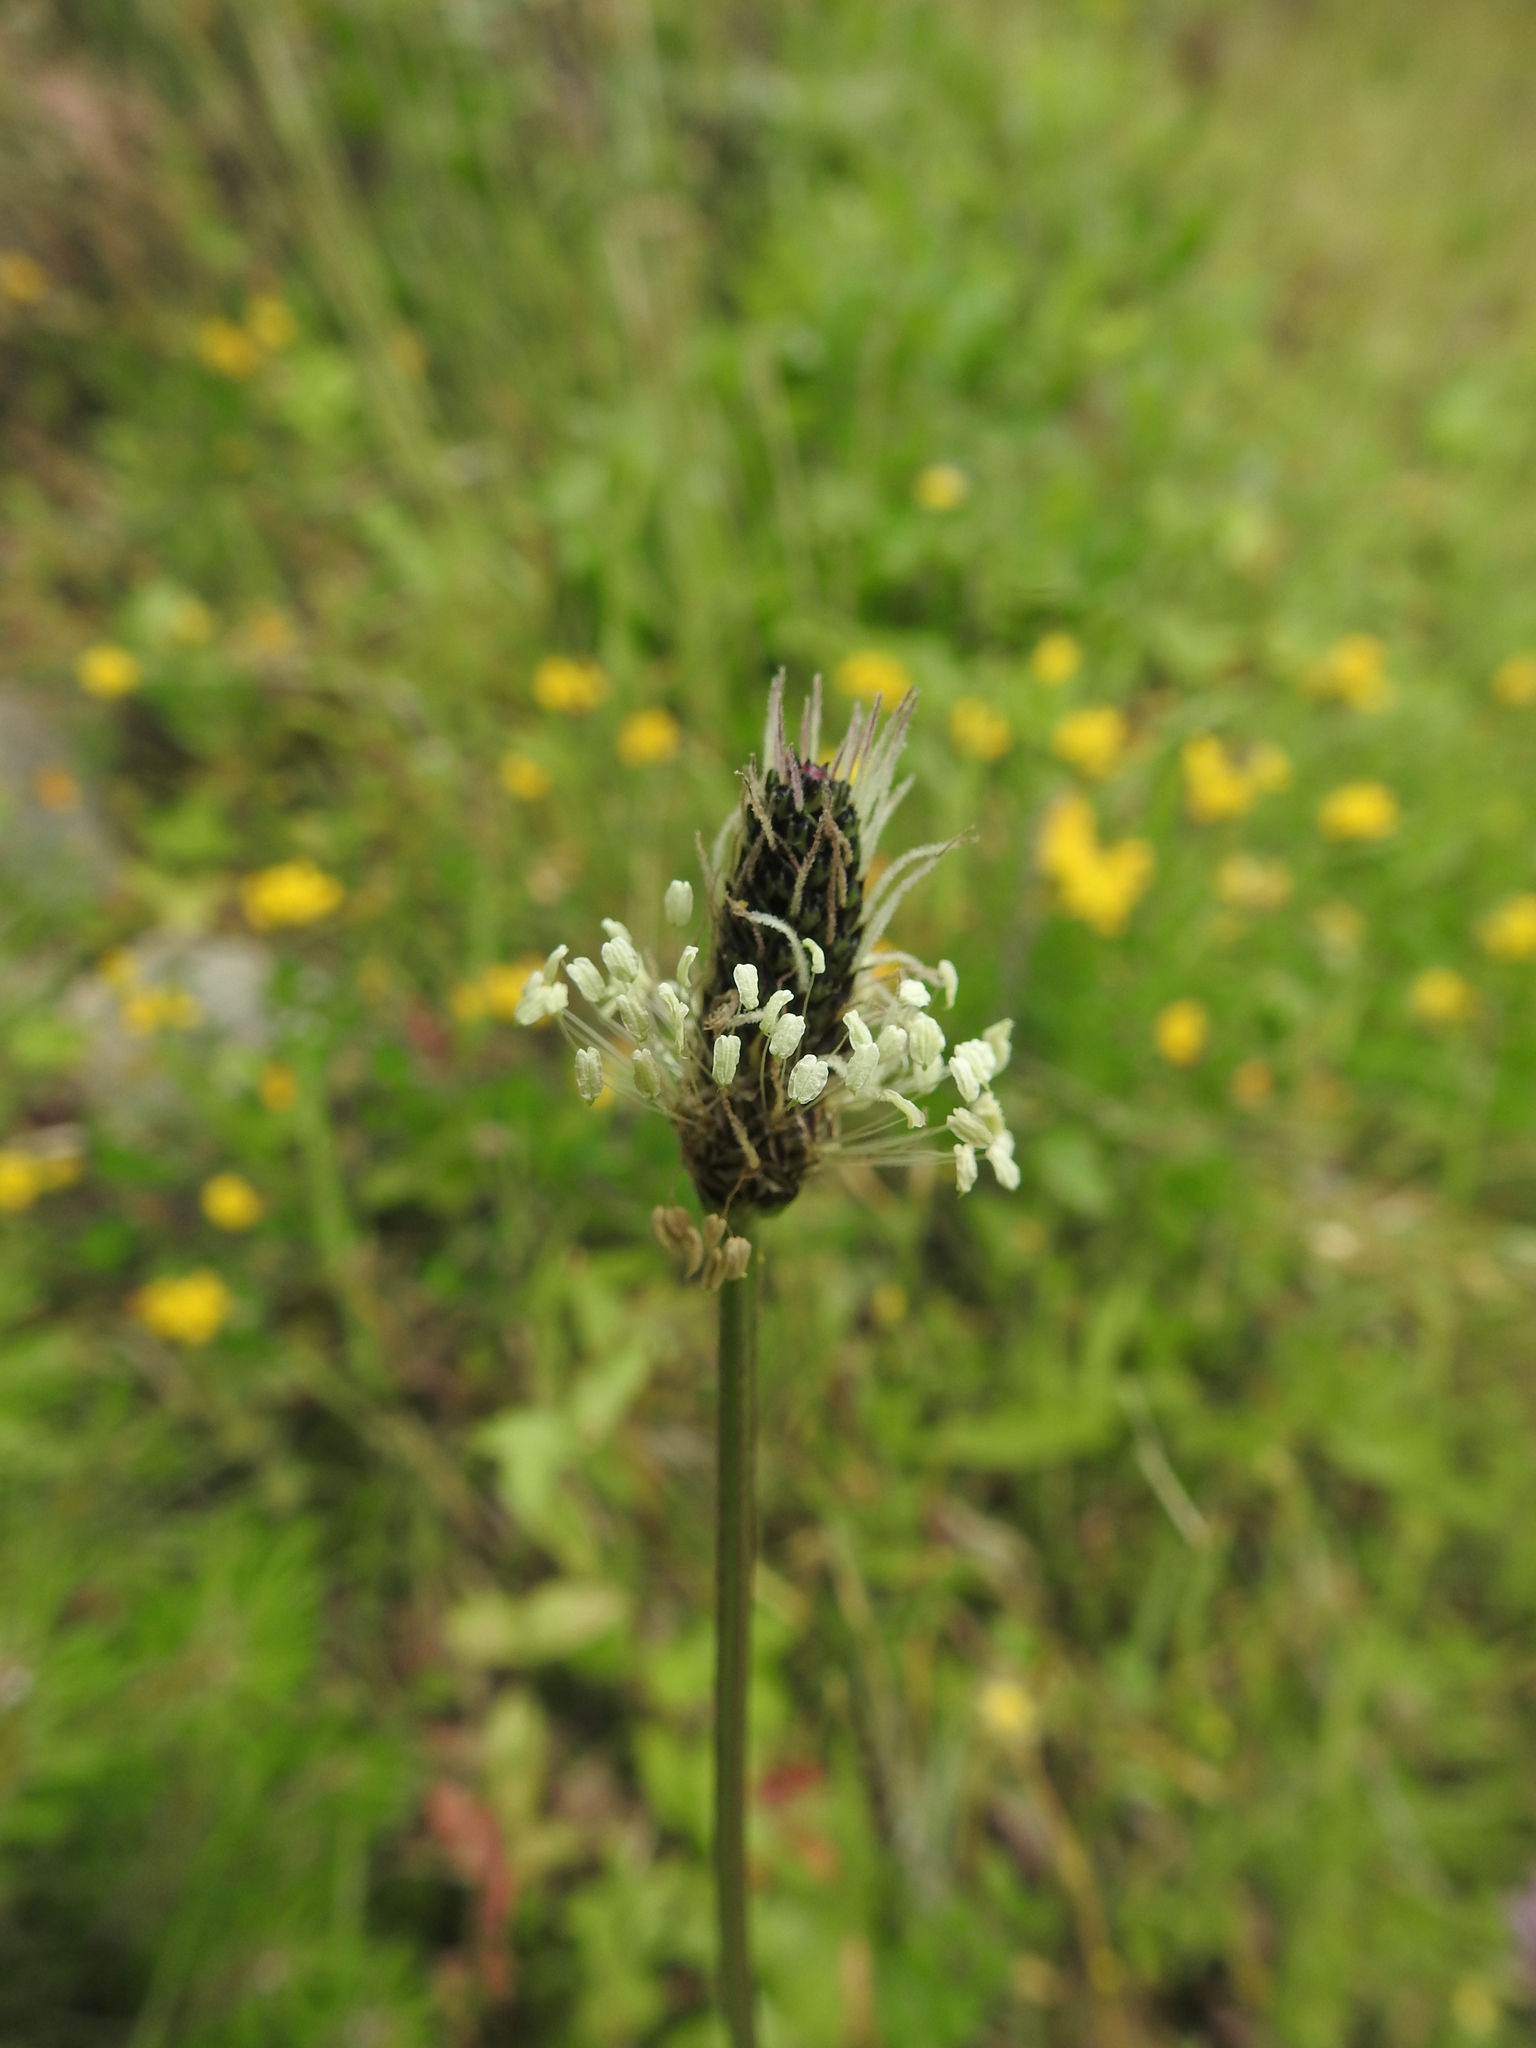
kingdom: Plantae
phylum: Tracheophyta
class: Magnoliopsida
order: Lamiales
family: Plantaginaceae
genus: Plantago
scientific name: Plantago lanceolata
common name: Ribwort plantain
